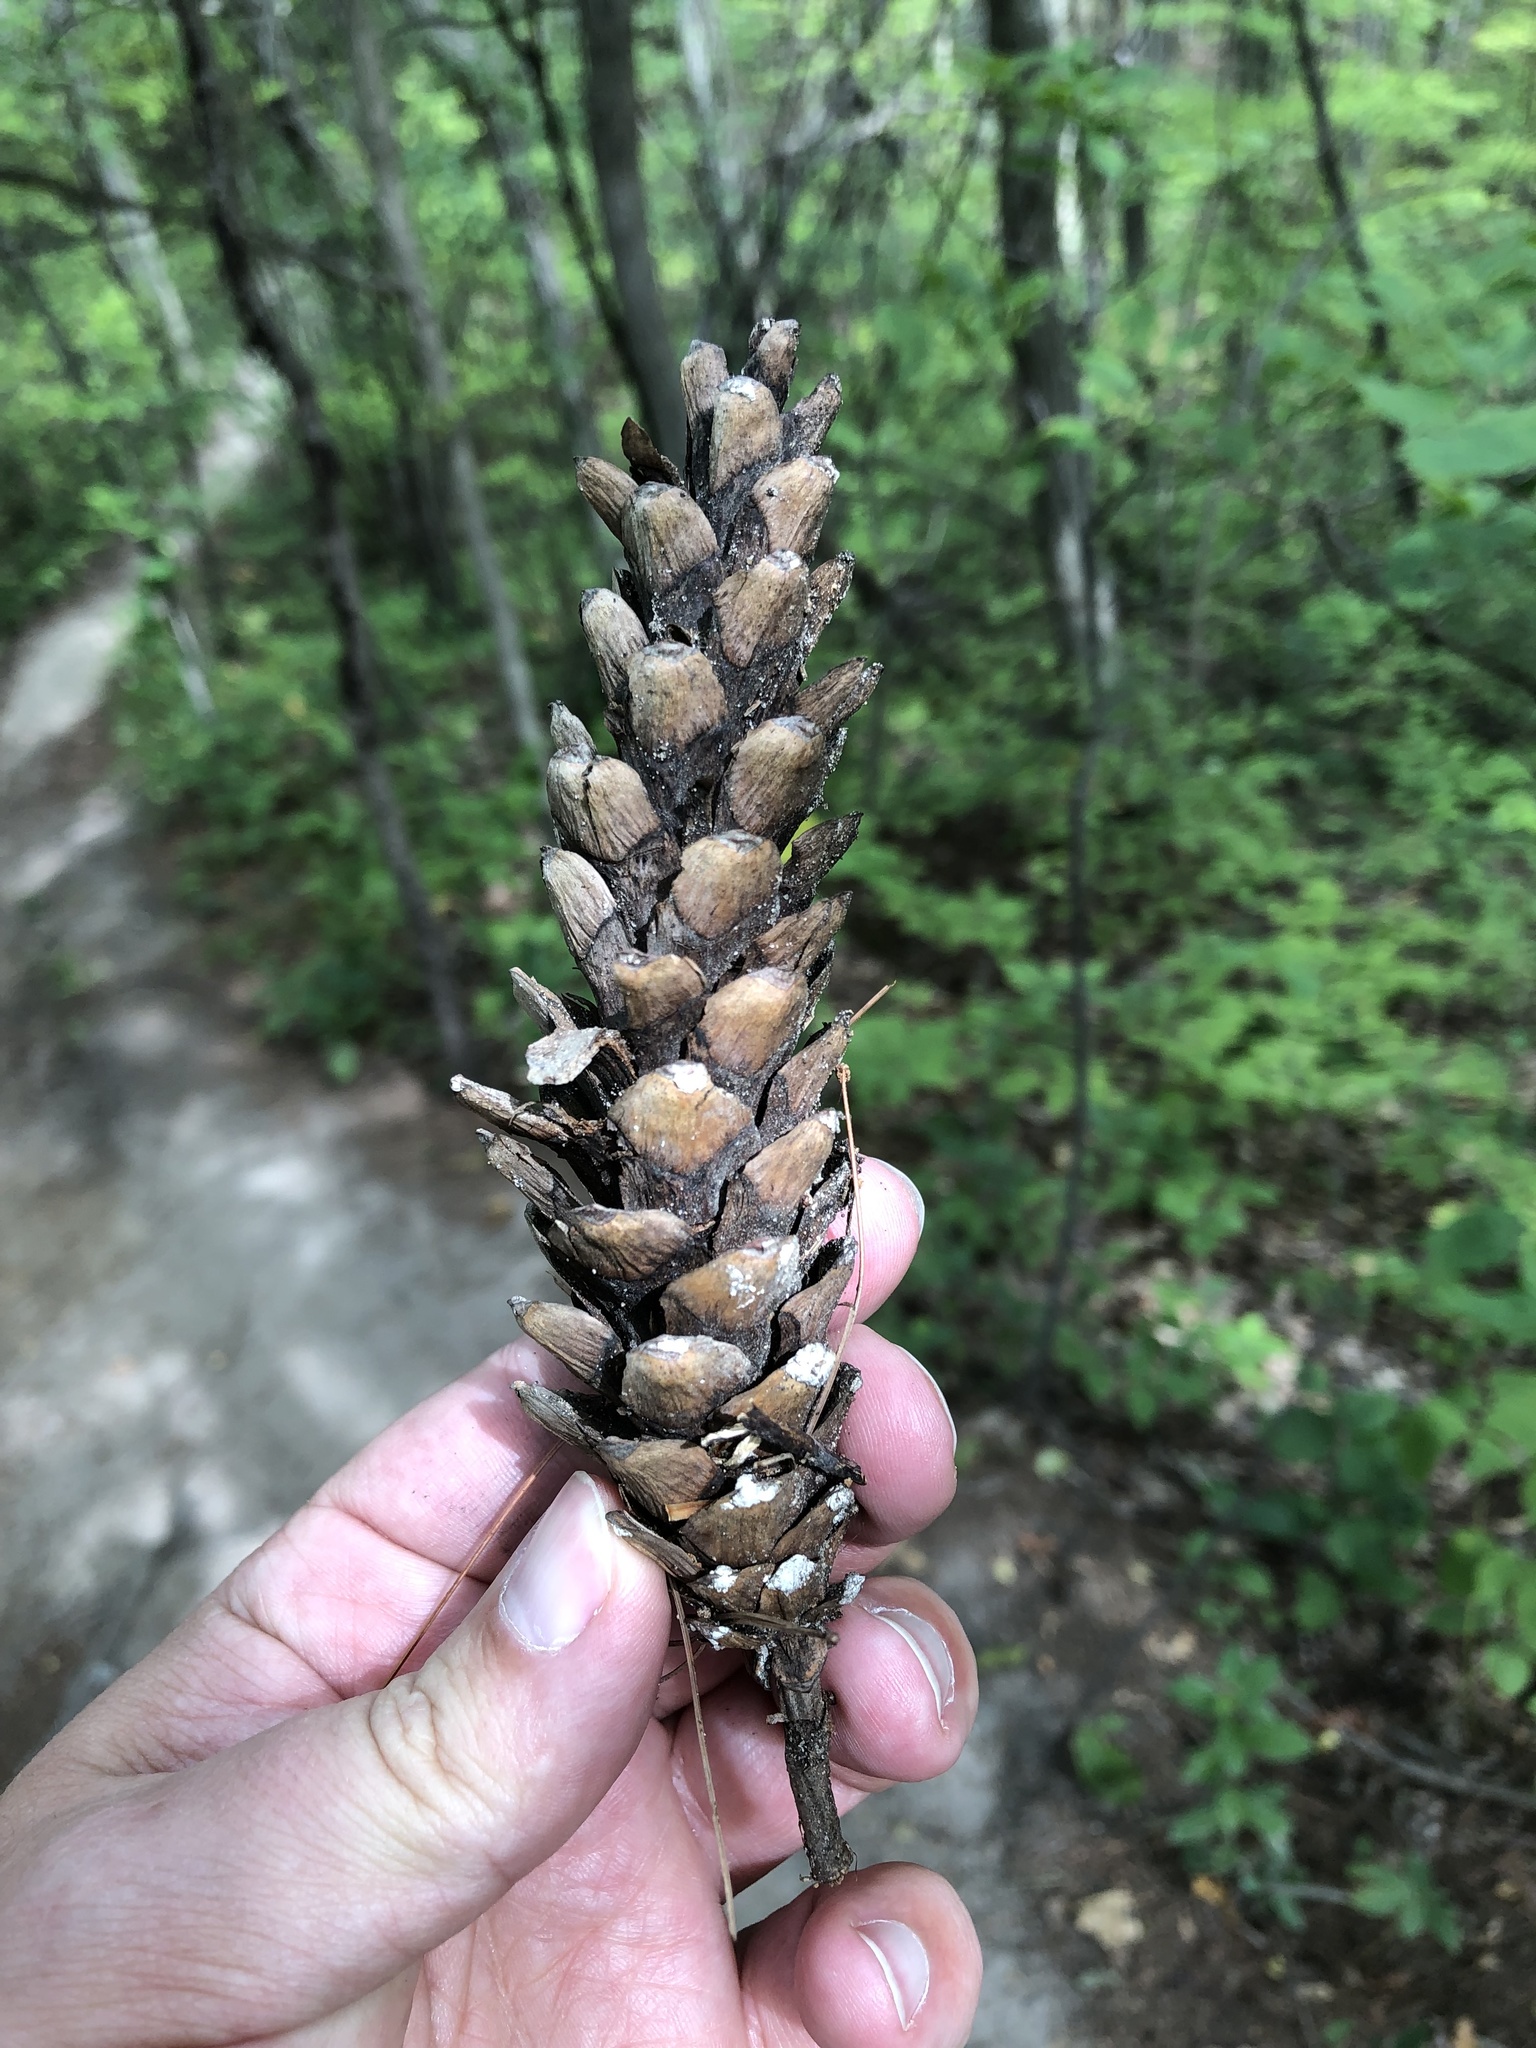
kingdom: Plantae
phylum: Tracheophyta
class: Pinopsida
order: Pinales
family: Pinaceae
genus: Pinus
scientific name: Pinus strobus
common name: Weymouth pine
